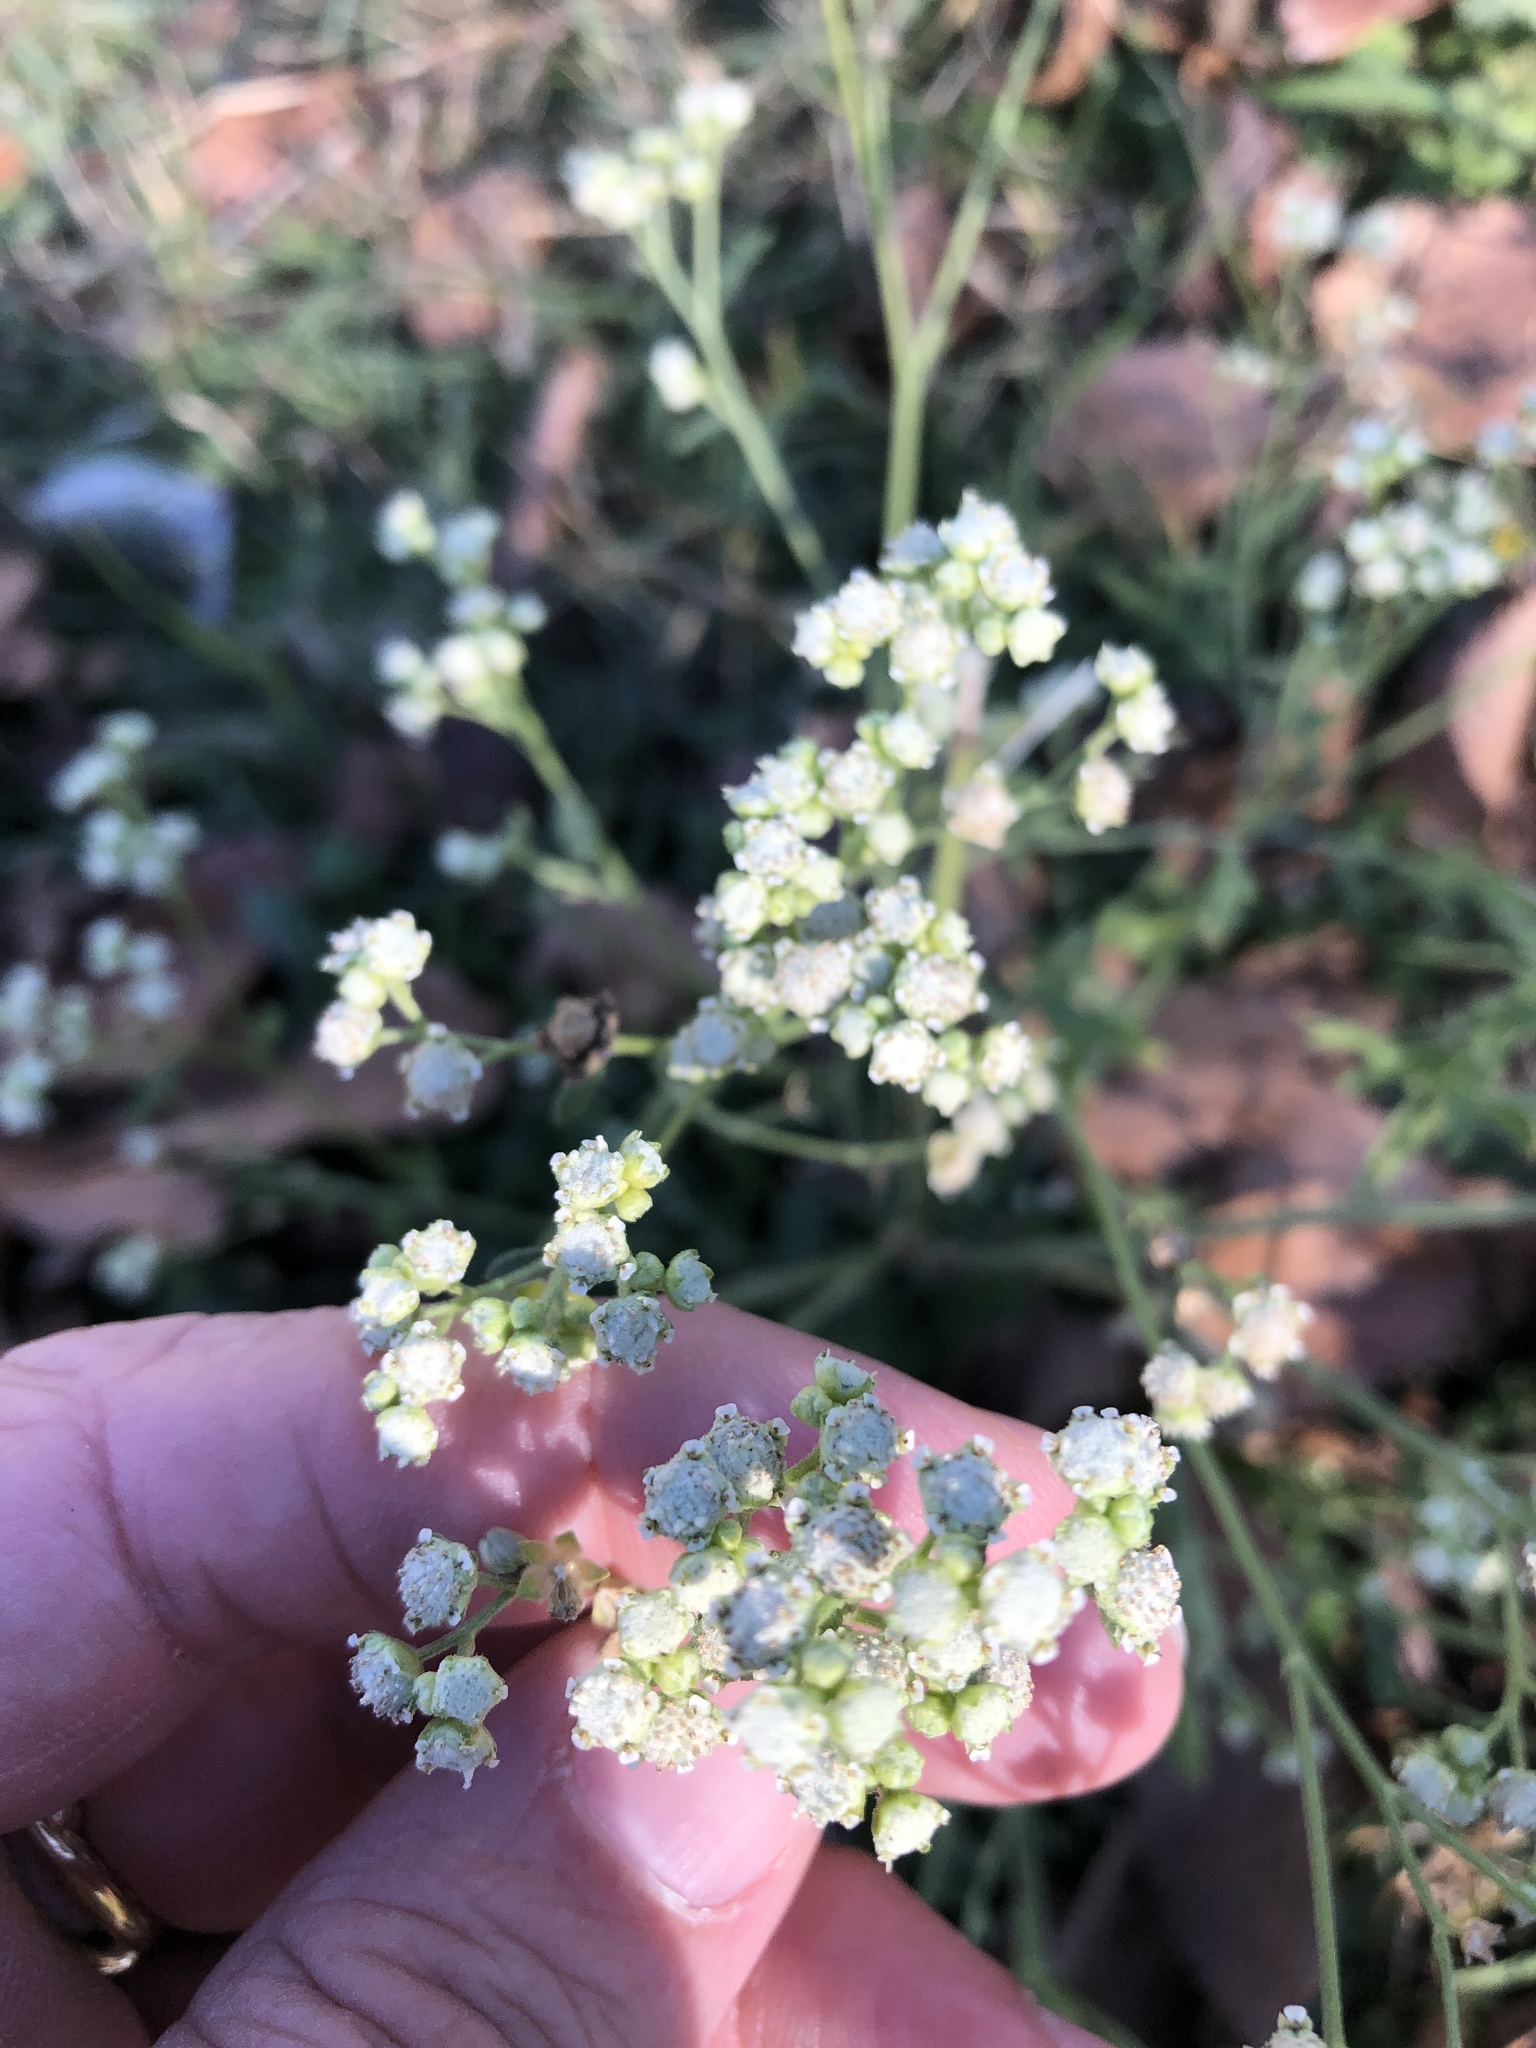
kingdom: Plantae
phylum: Tracheophyta
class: Magnoliopsida
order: Asterales
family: Asteraceae
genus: Parthenium
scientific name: Parthenium hysterophorus
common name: Santa maria feverfew
